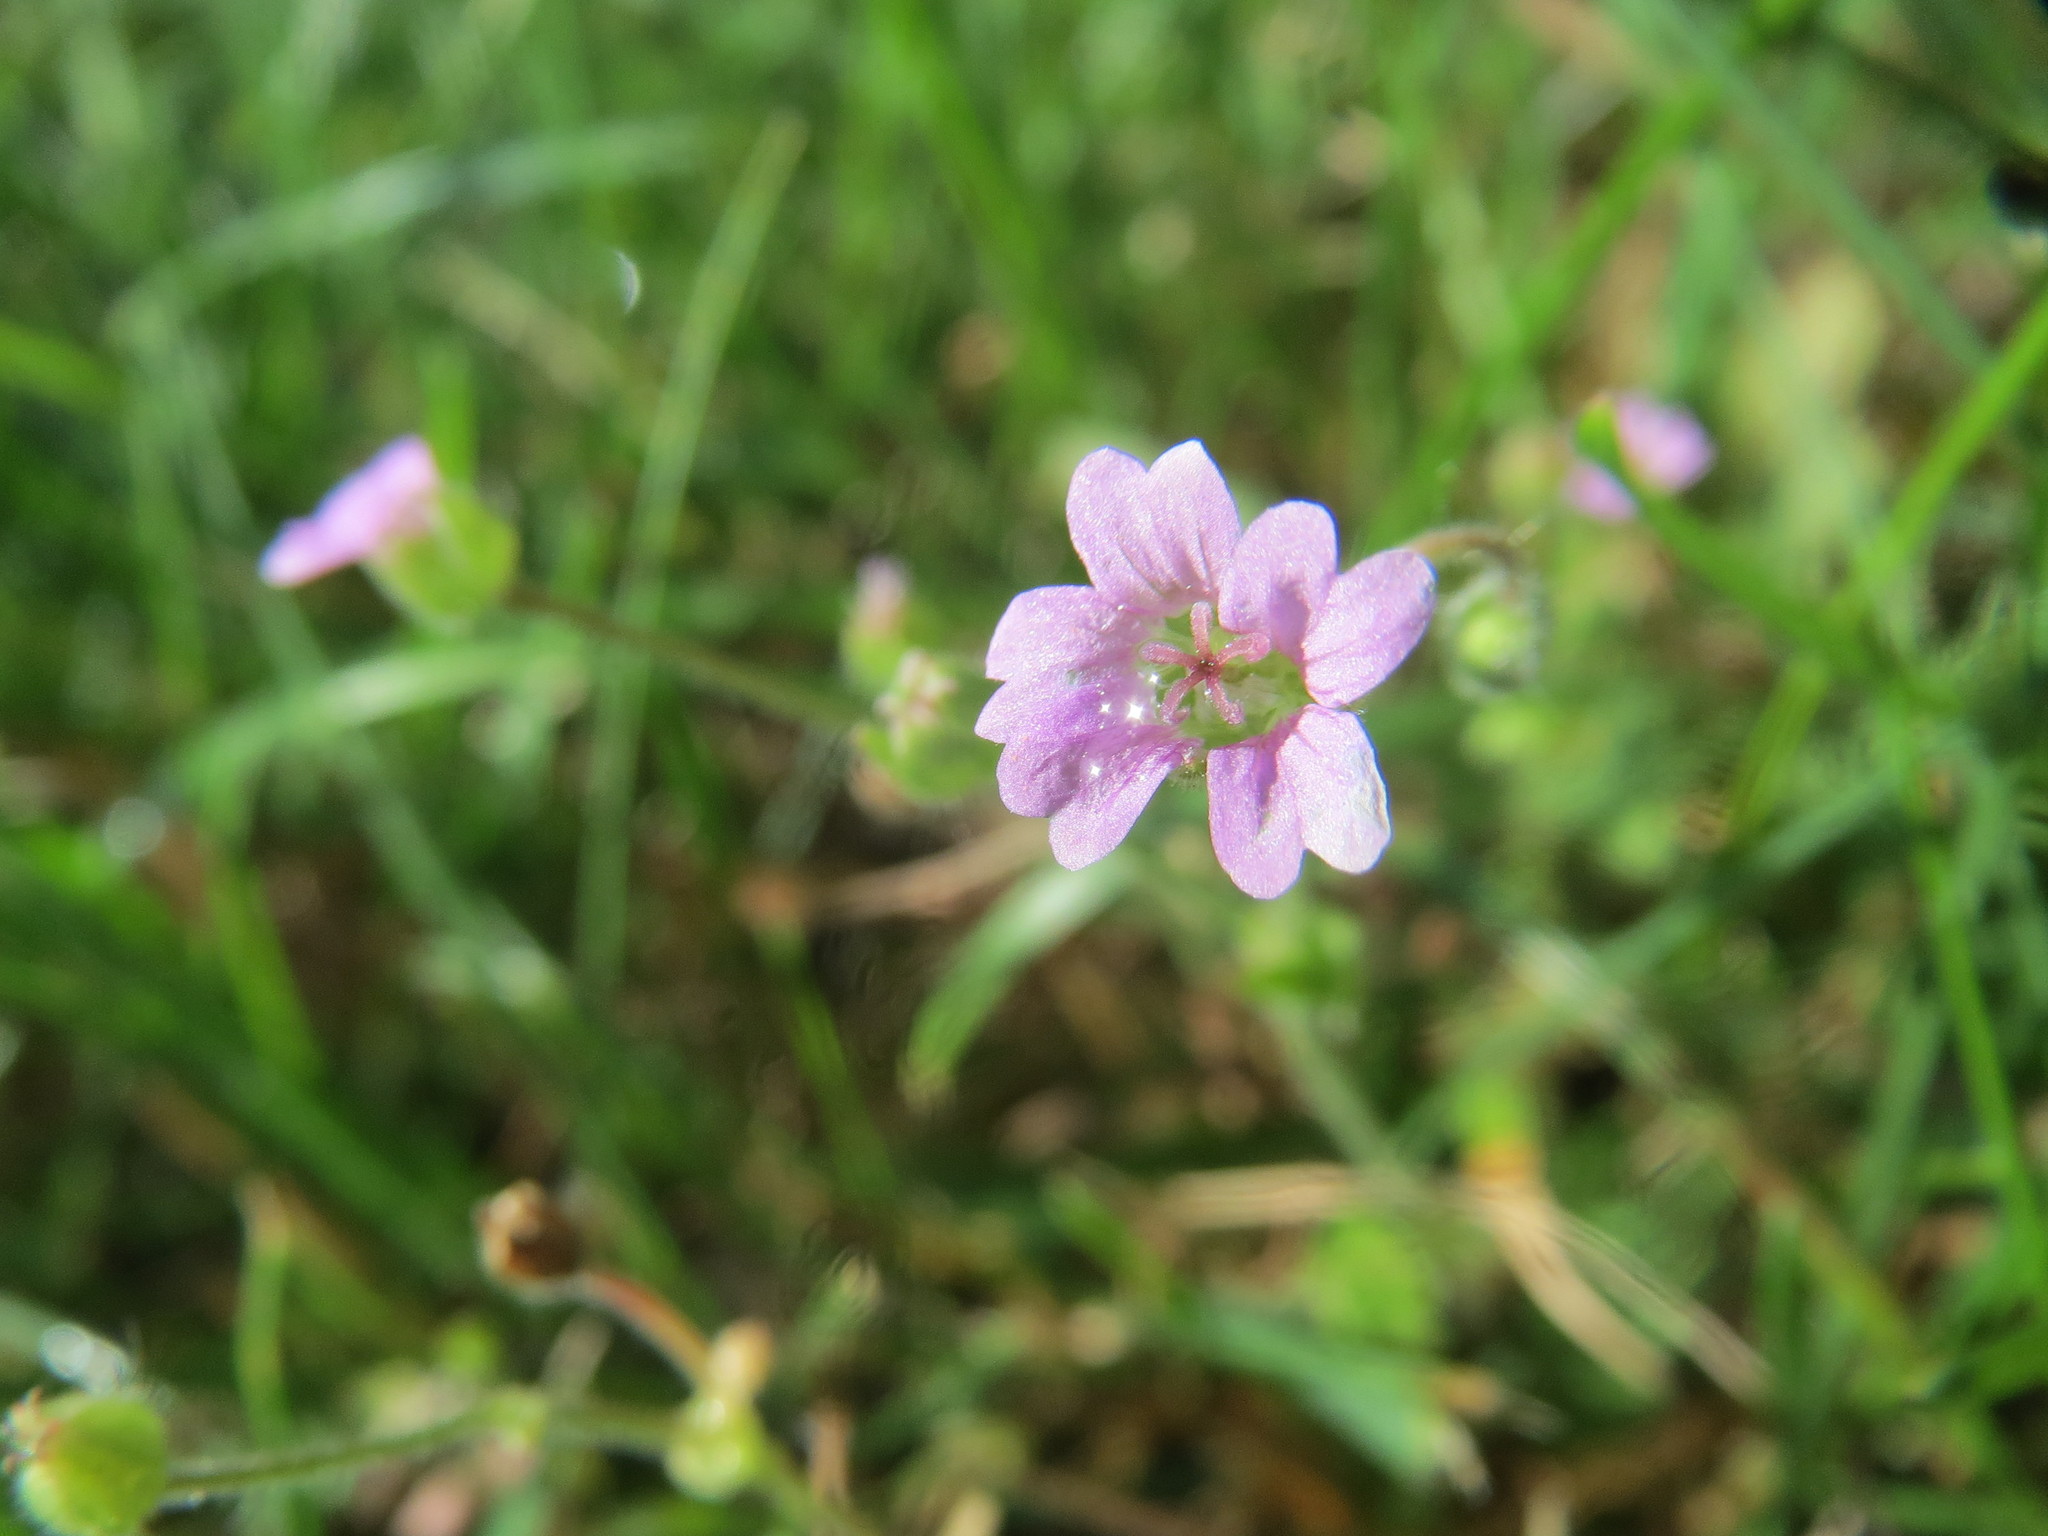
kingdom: Plantae
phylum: Tracheophyta
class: Magnoliopsida
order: Geraniales
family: Geraniaceae
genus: Geranium
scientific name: Geranium molle
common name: Dove's-foot crane's-bill
